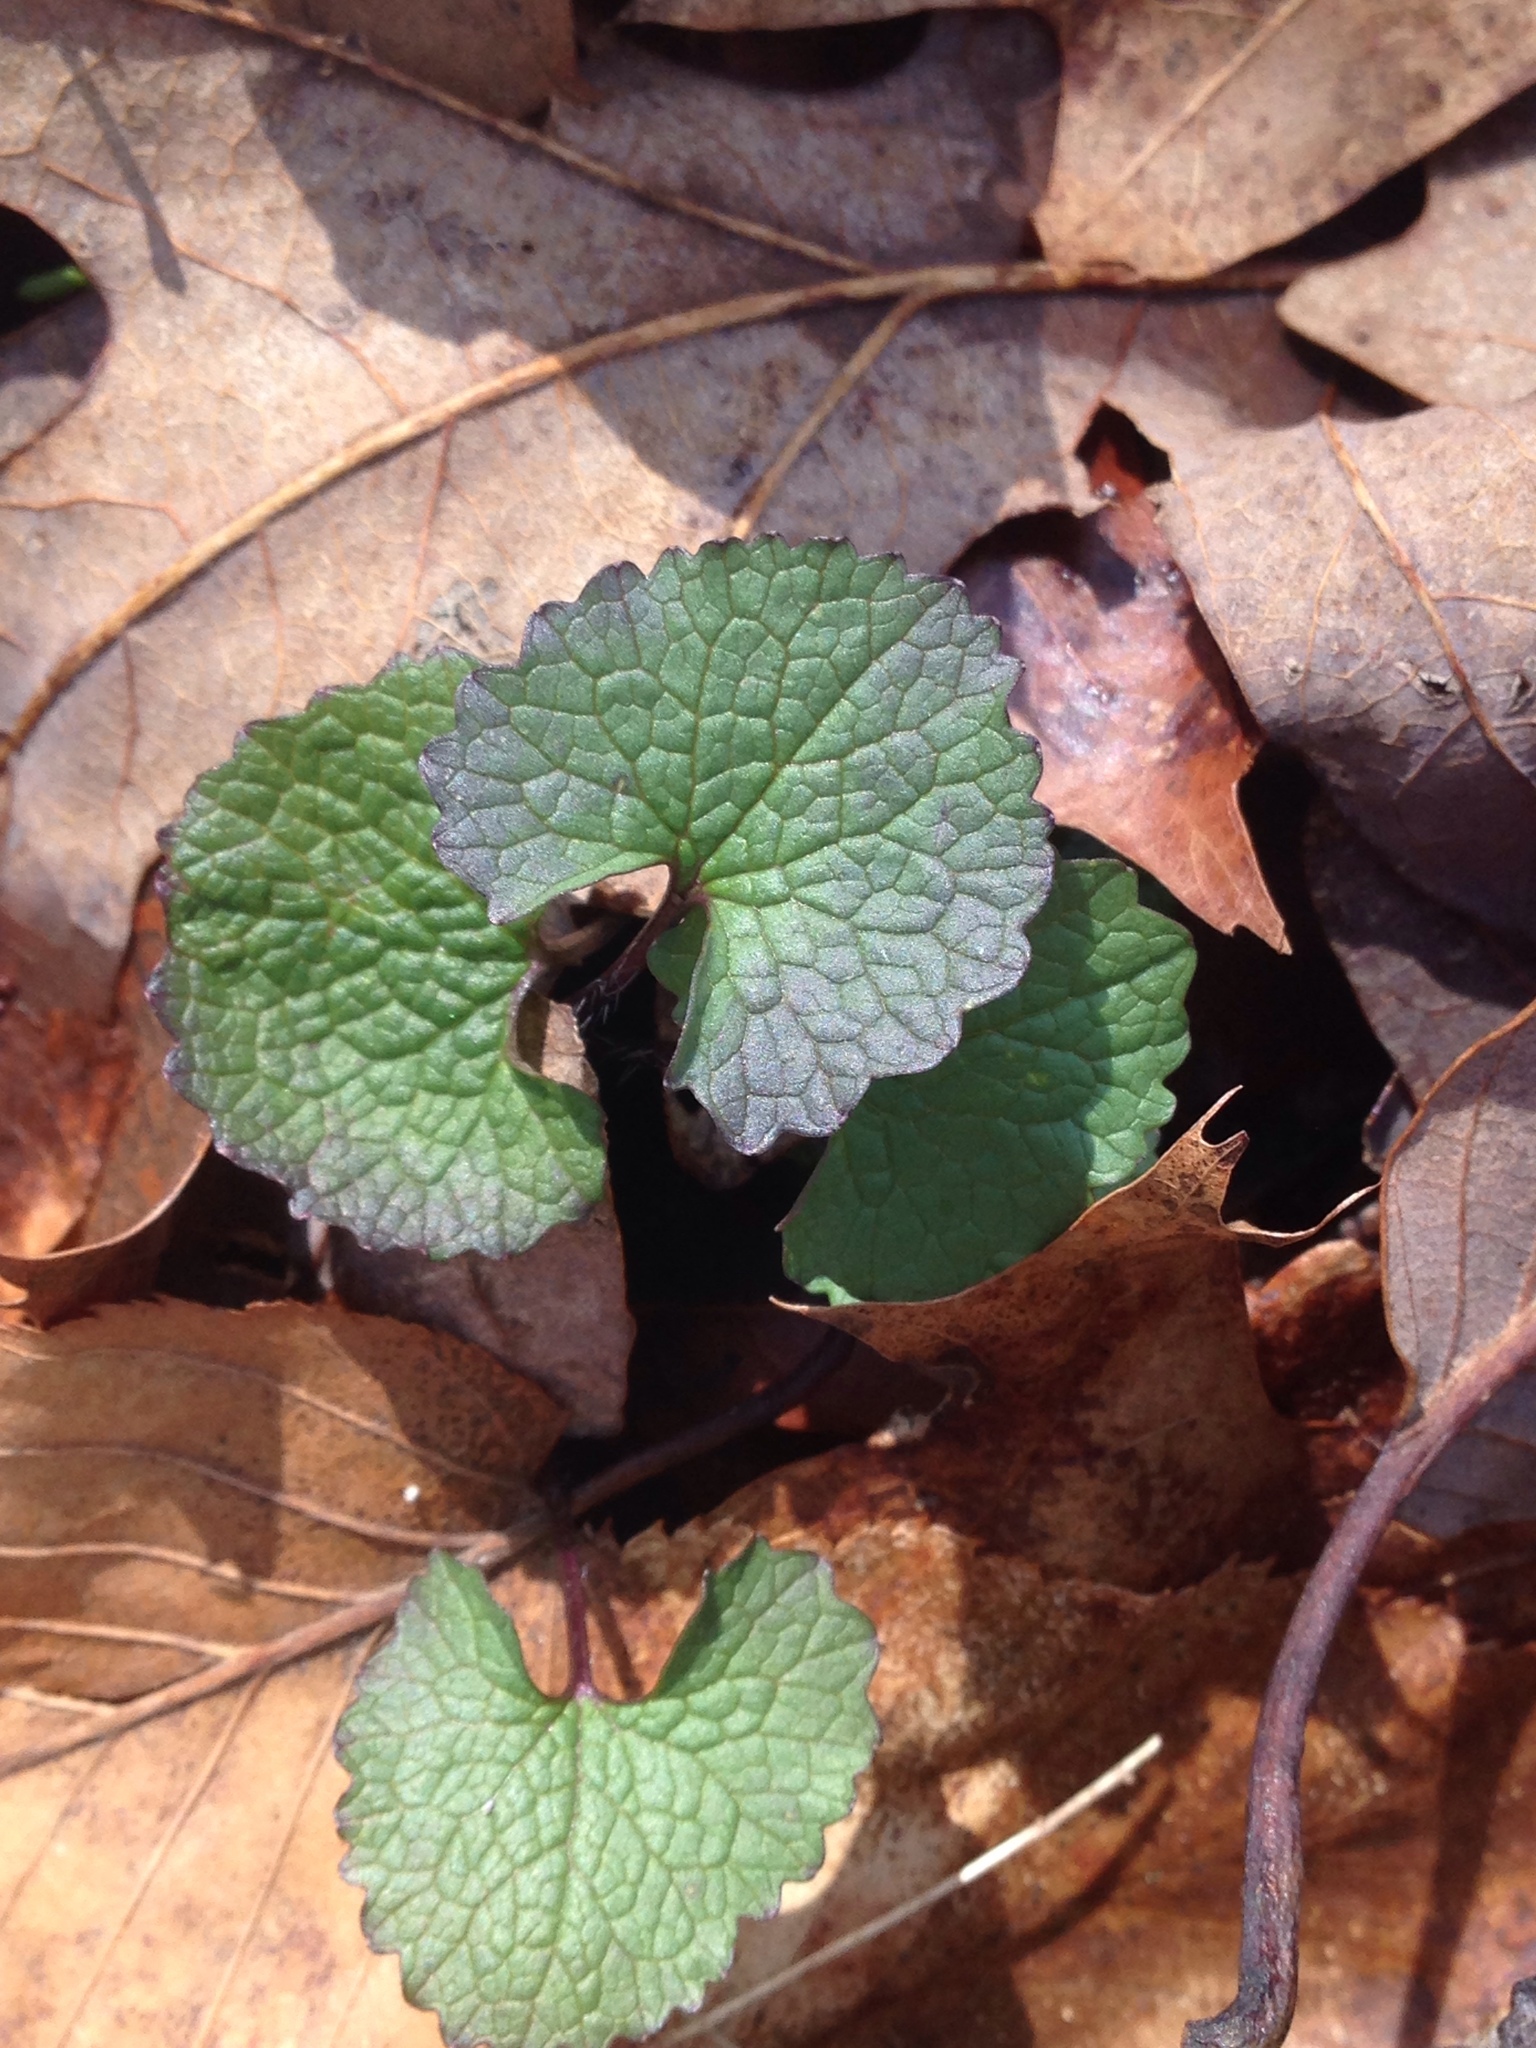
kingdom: Plantae
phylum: Tracheophyta
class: Magnoliopsida
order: Brassicales
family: Brassicaceae
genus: Alliaria
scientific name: Alliaria petiolata
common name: Garlic mustard
